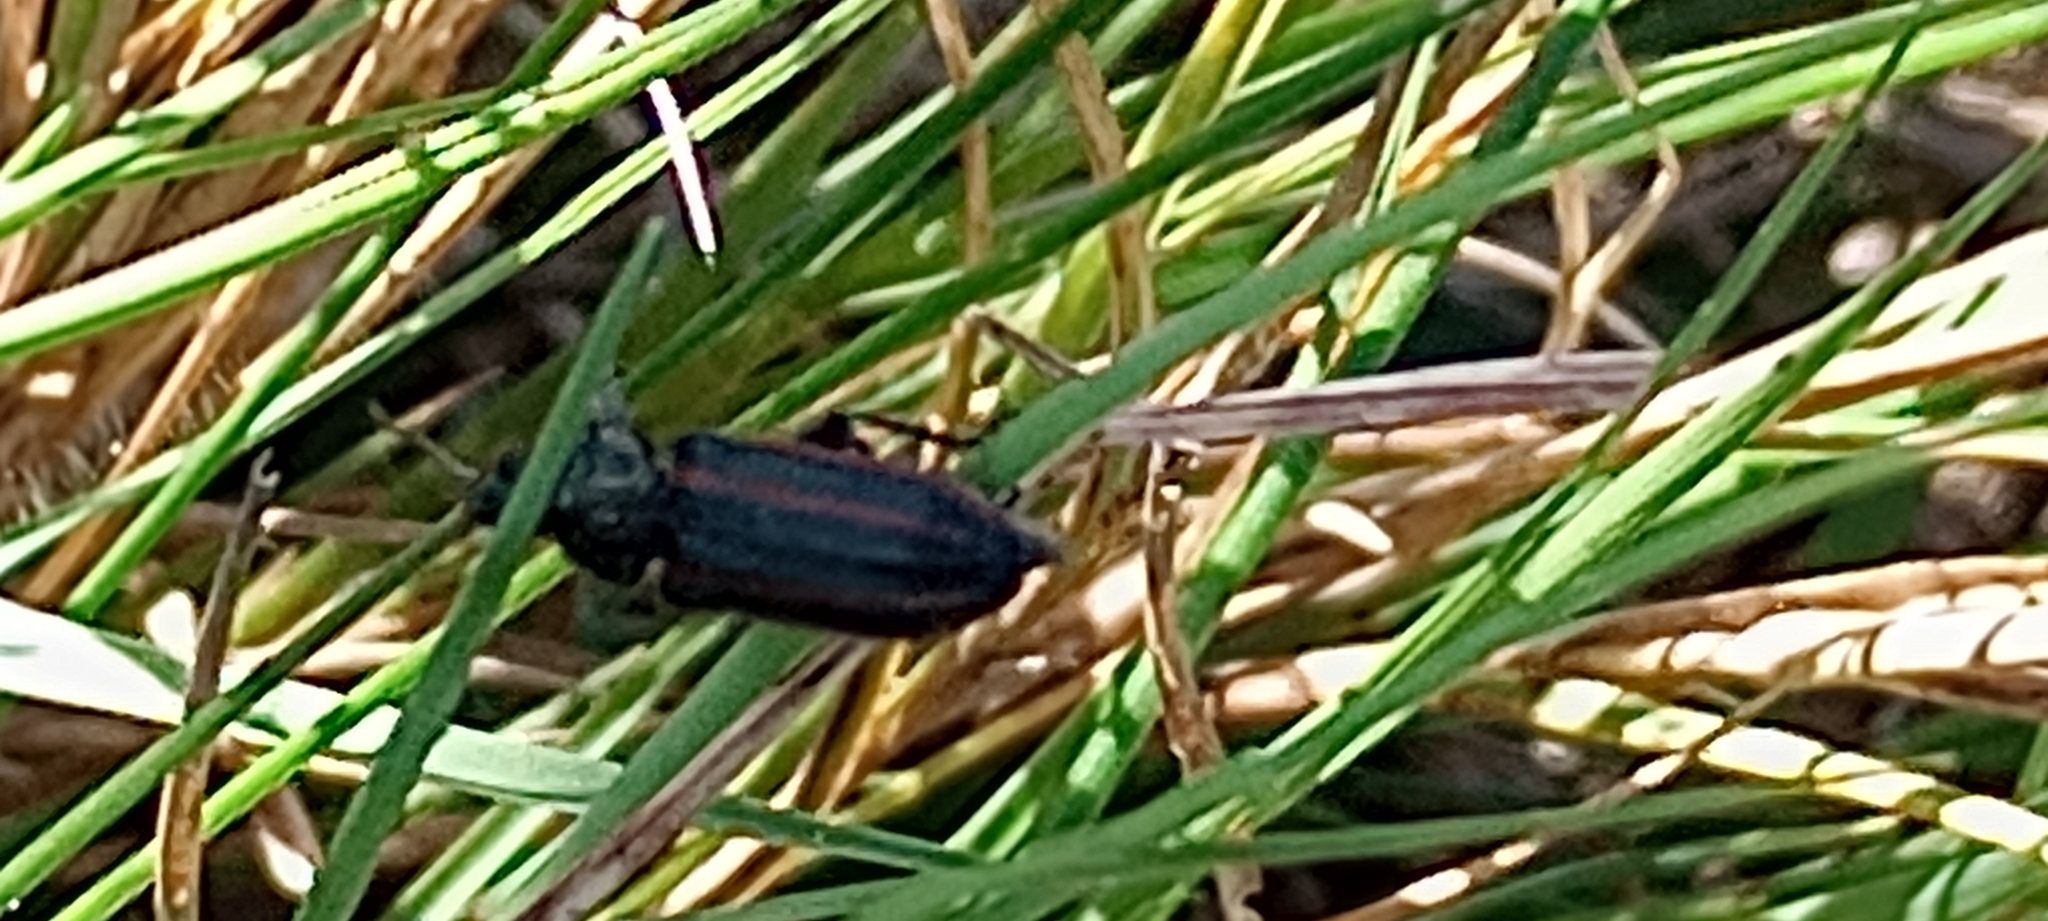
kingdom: Animalia
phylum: Arthropoda
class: Insecta
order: Coleoptera
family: Melyridae
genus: Astylus
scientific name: Astylus
